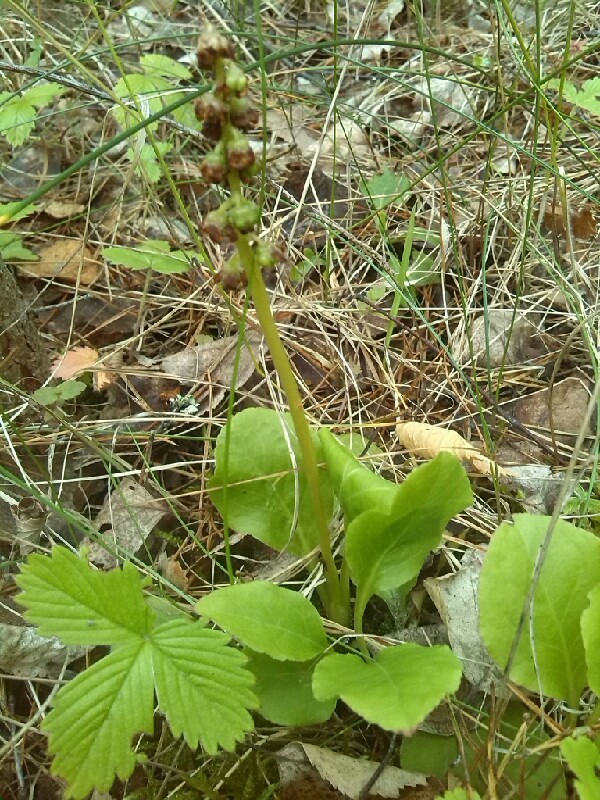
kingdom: Plantae
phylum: Tracheophyta
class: Magnoliopsida
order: Ericales
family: Ericaceae
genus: Pyrola
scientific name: Pyrola minor
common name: Common wintergreen
